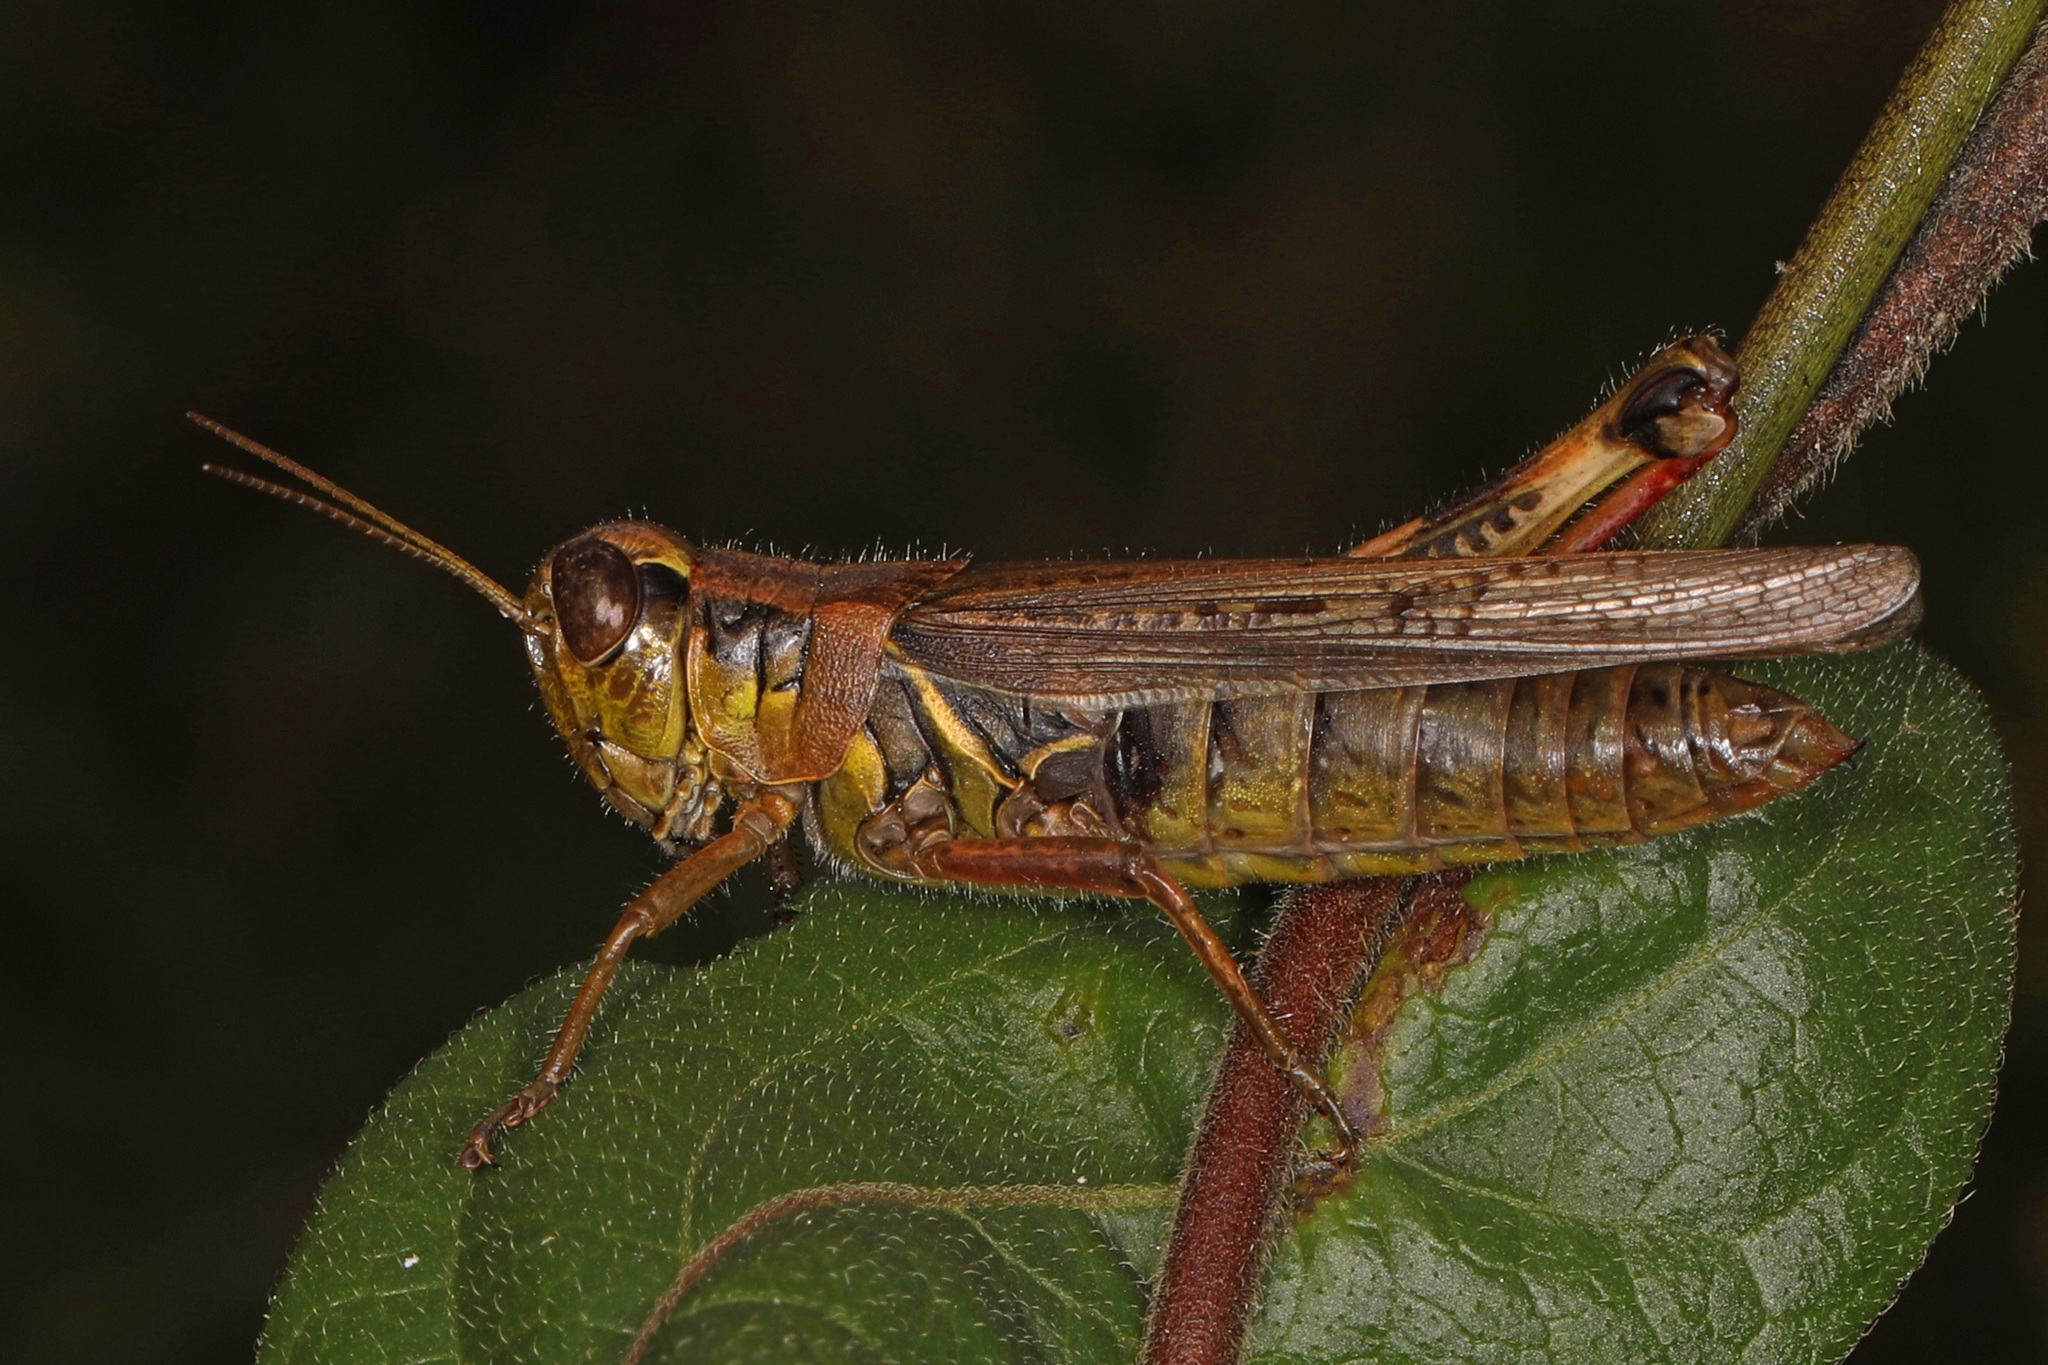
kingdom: Animalia
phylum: Arthropoda
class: Insecta
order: Orthoptera
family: Acrididae
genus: Melanoplus
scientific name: Melanoplus femurrubrum
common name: Red-legged grasshopper
